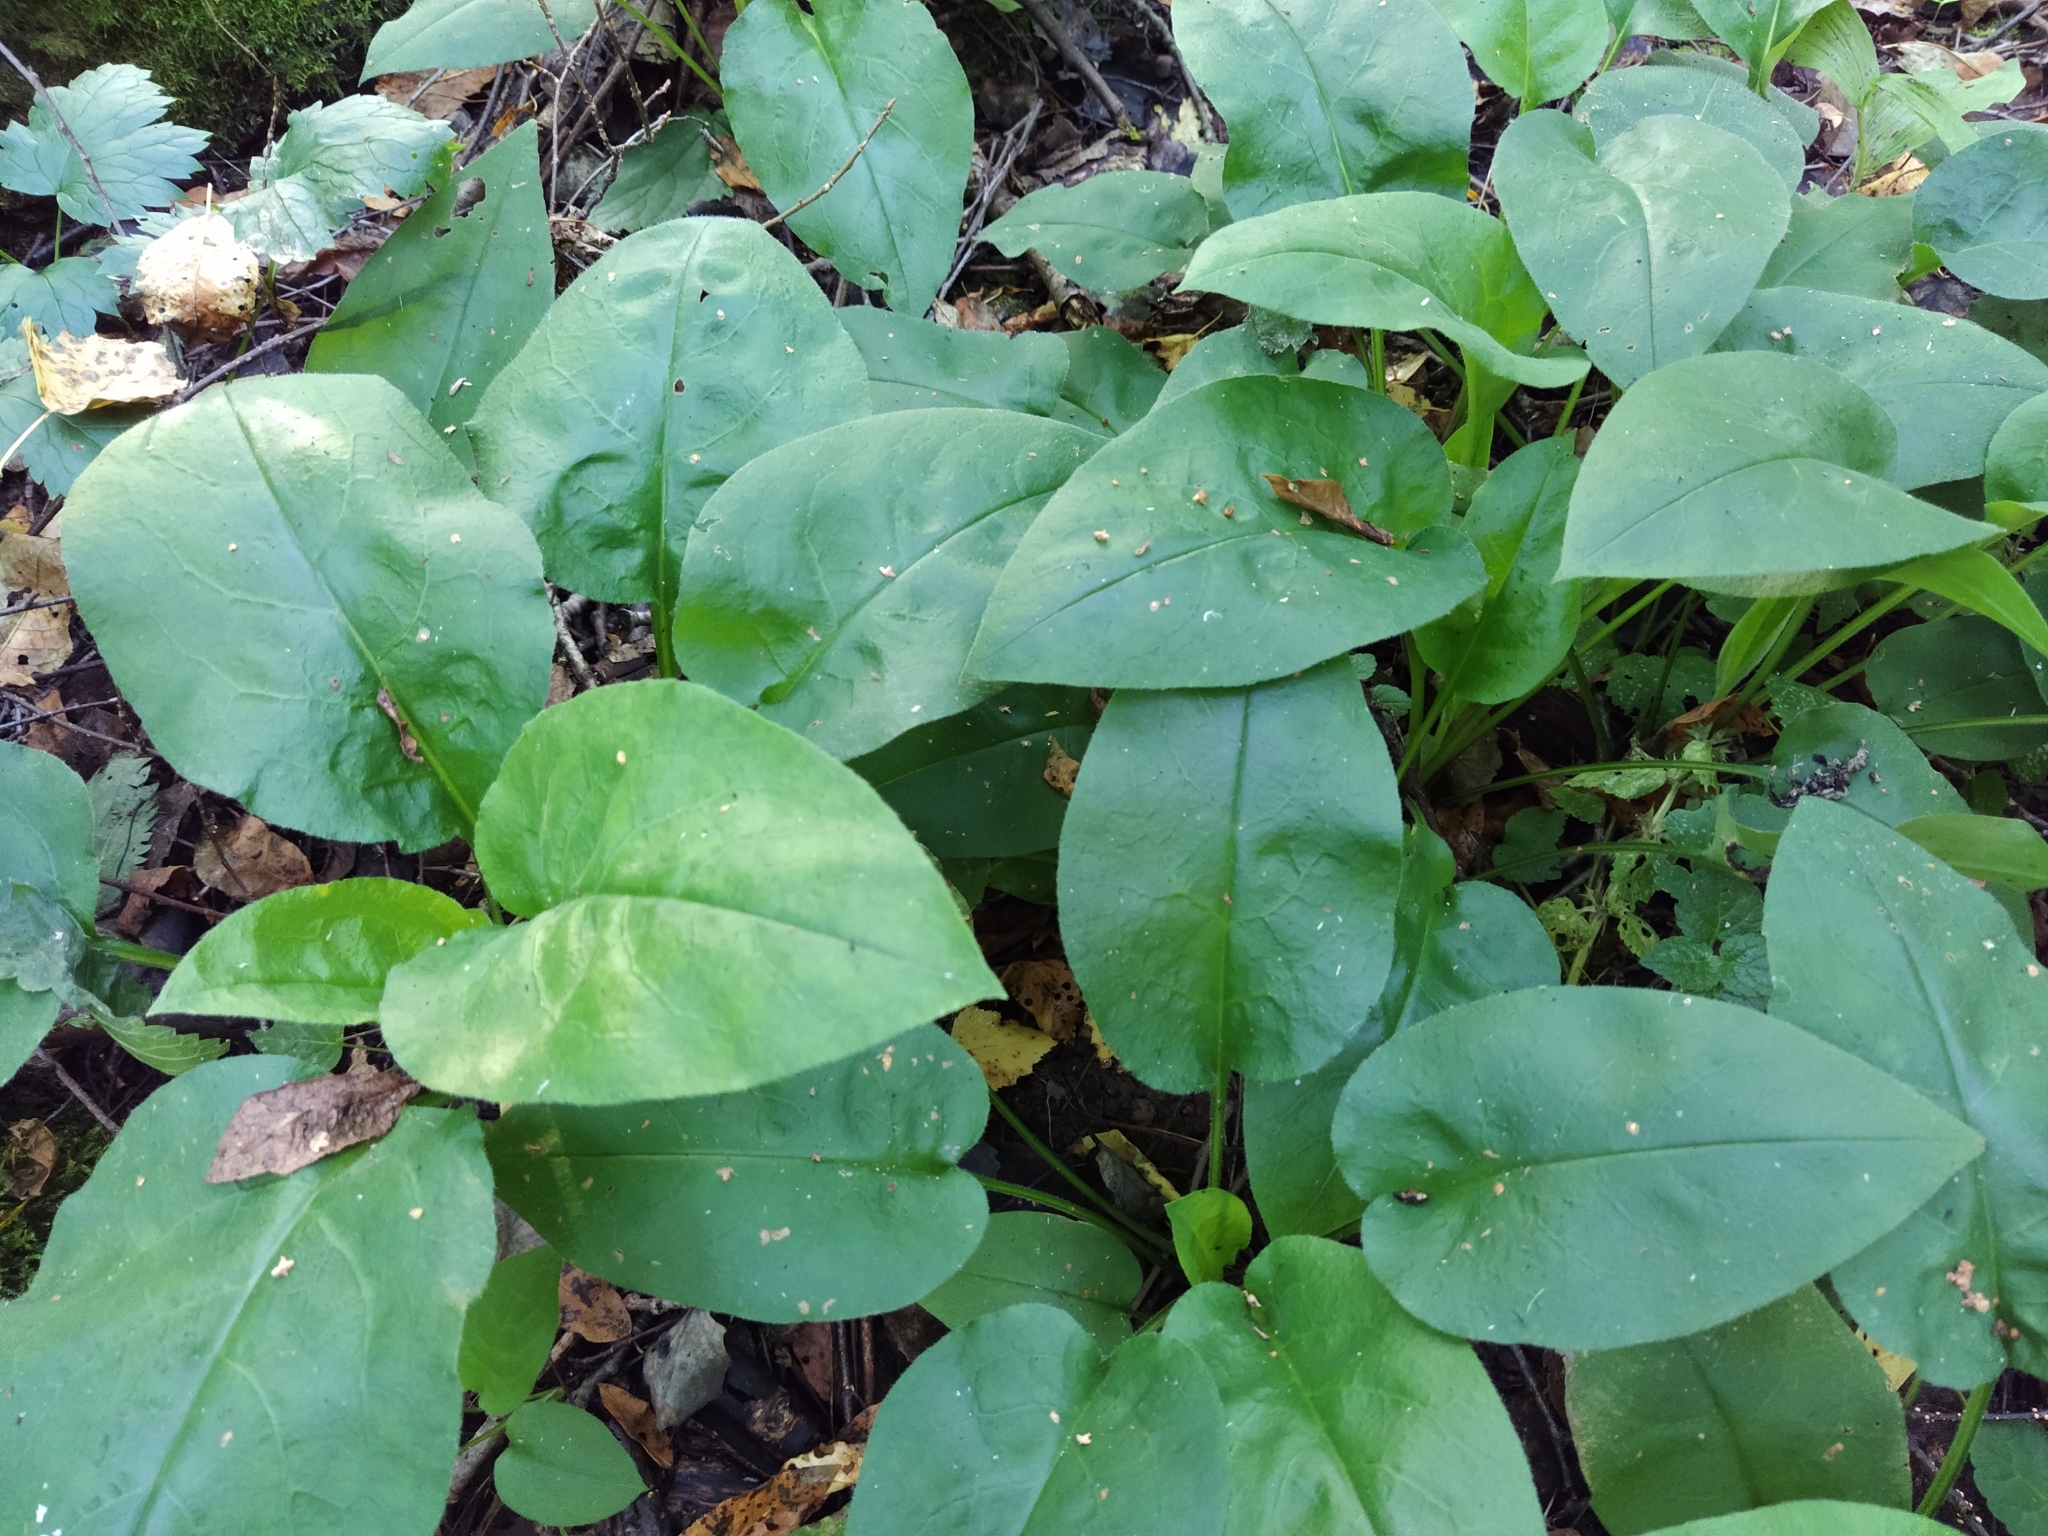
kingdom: Plantae
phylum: Tracheophyta
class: Magnoliopsida
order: Boraginales
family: Boraginaceae
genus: Pulmonaria
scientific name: Pulmonaria obscura
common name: Suffolk lungwort
